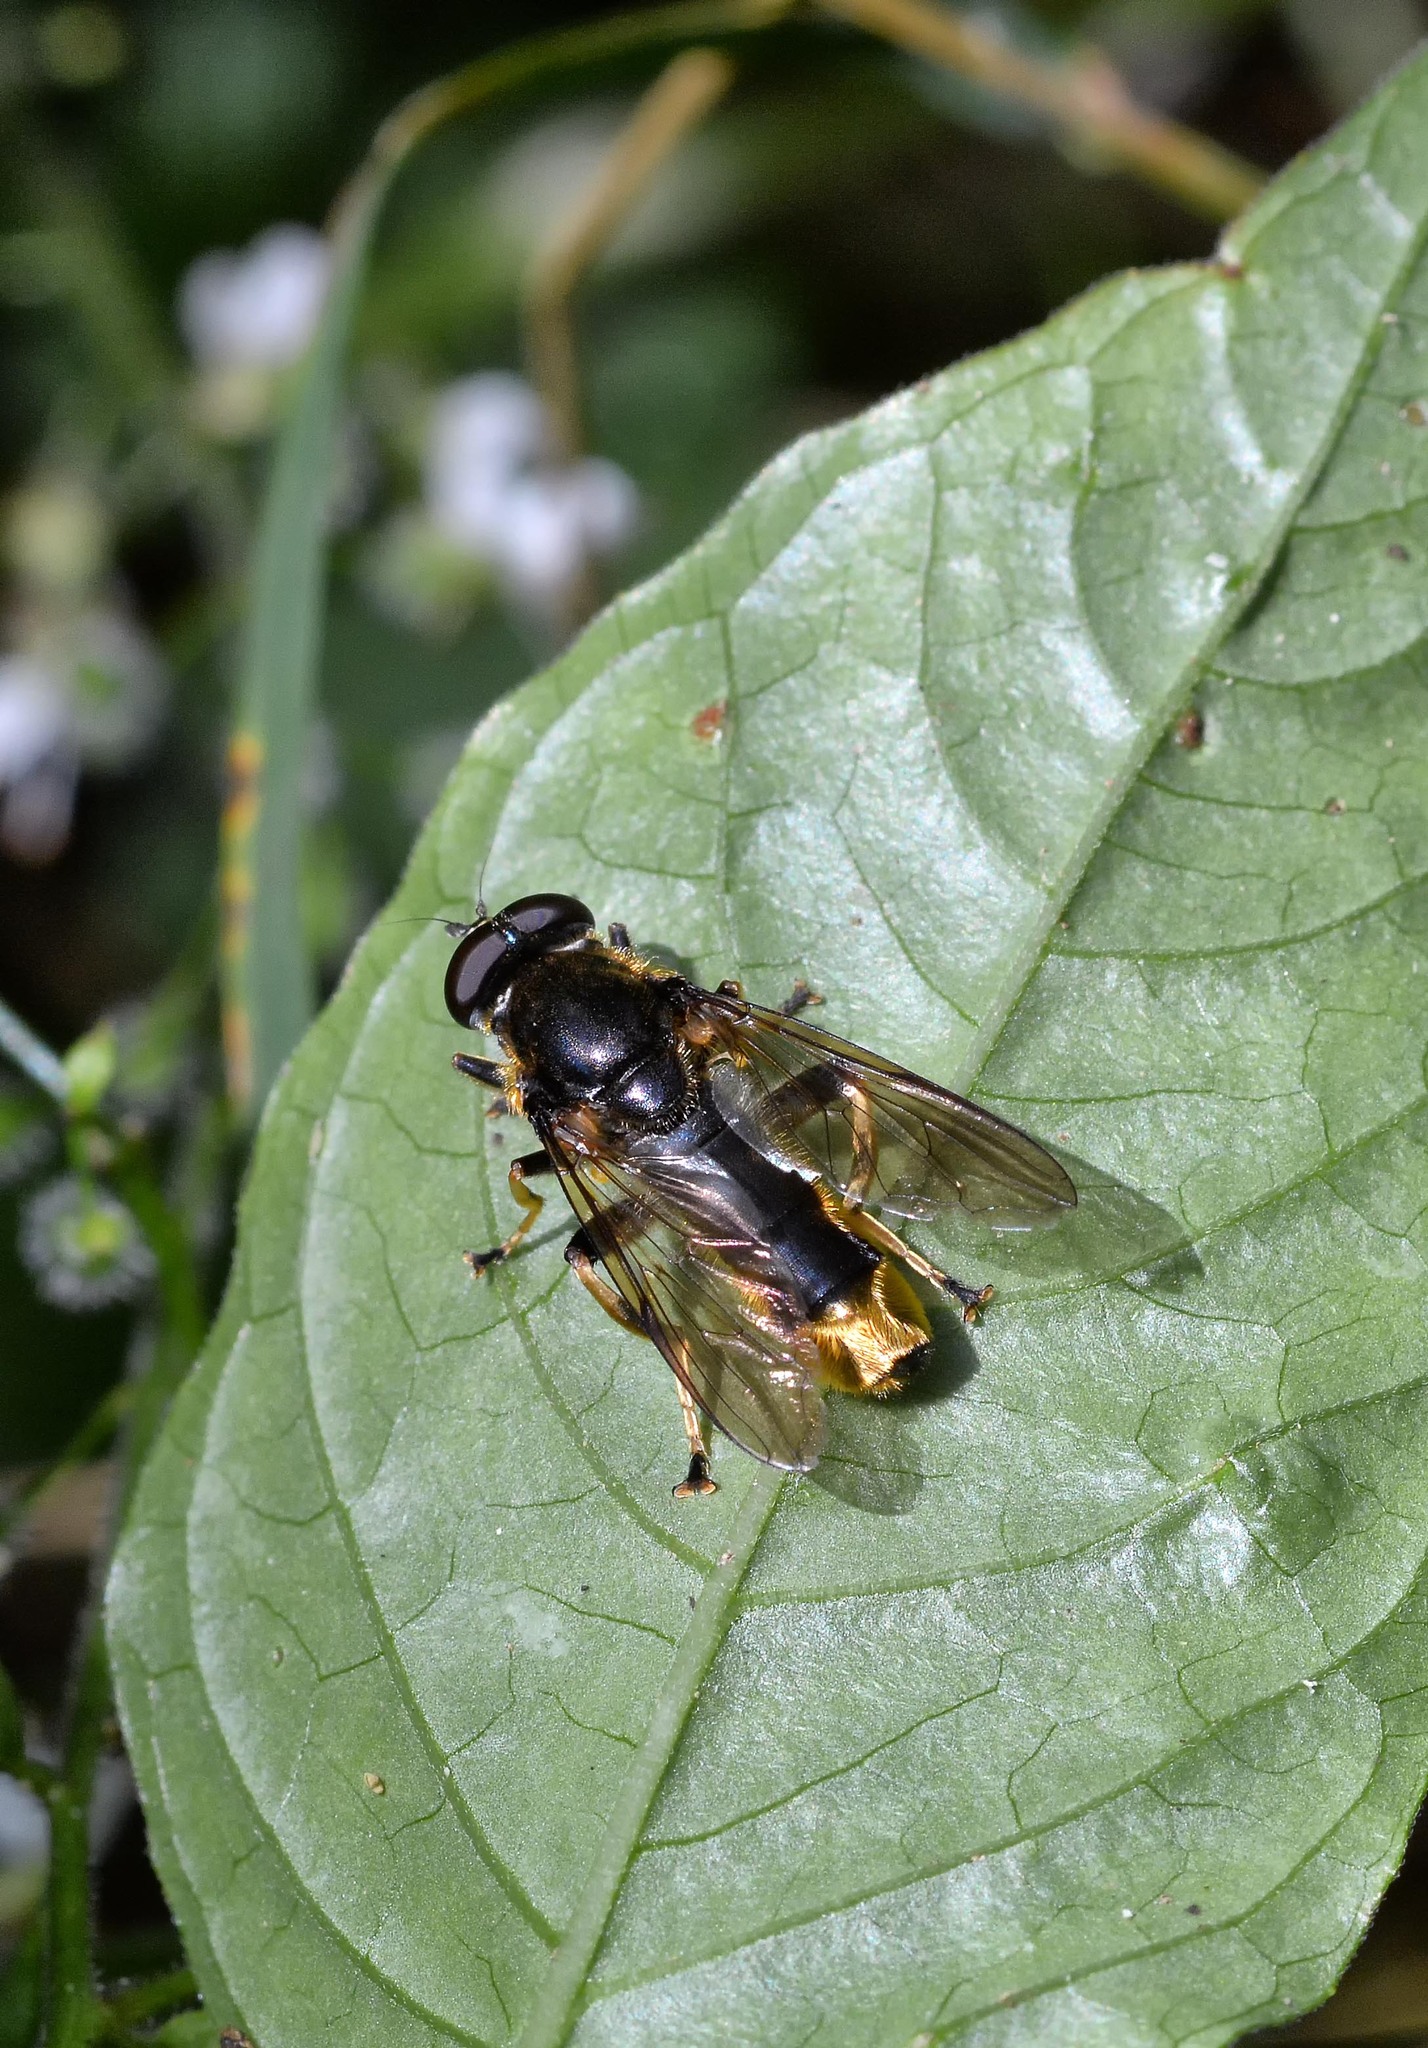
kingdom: Animalia
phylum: Arthropoda
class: Insecta
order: Diptera
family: Syrphidae
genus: Xylota
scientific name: Xylota sylvarum
